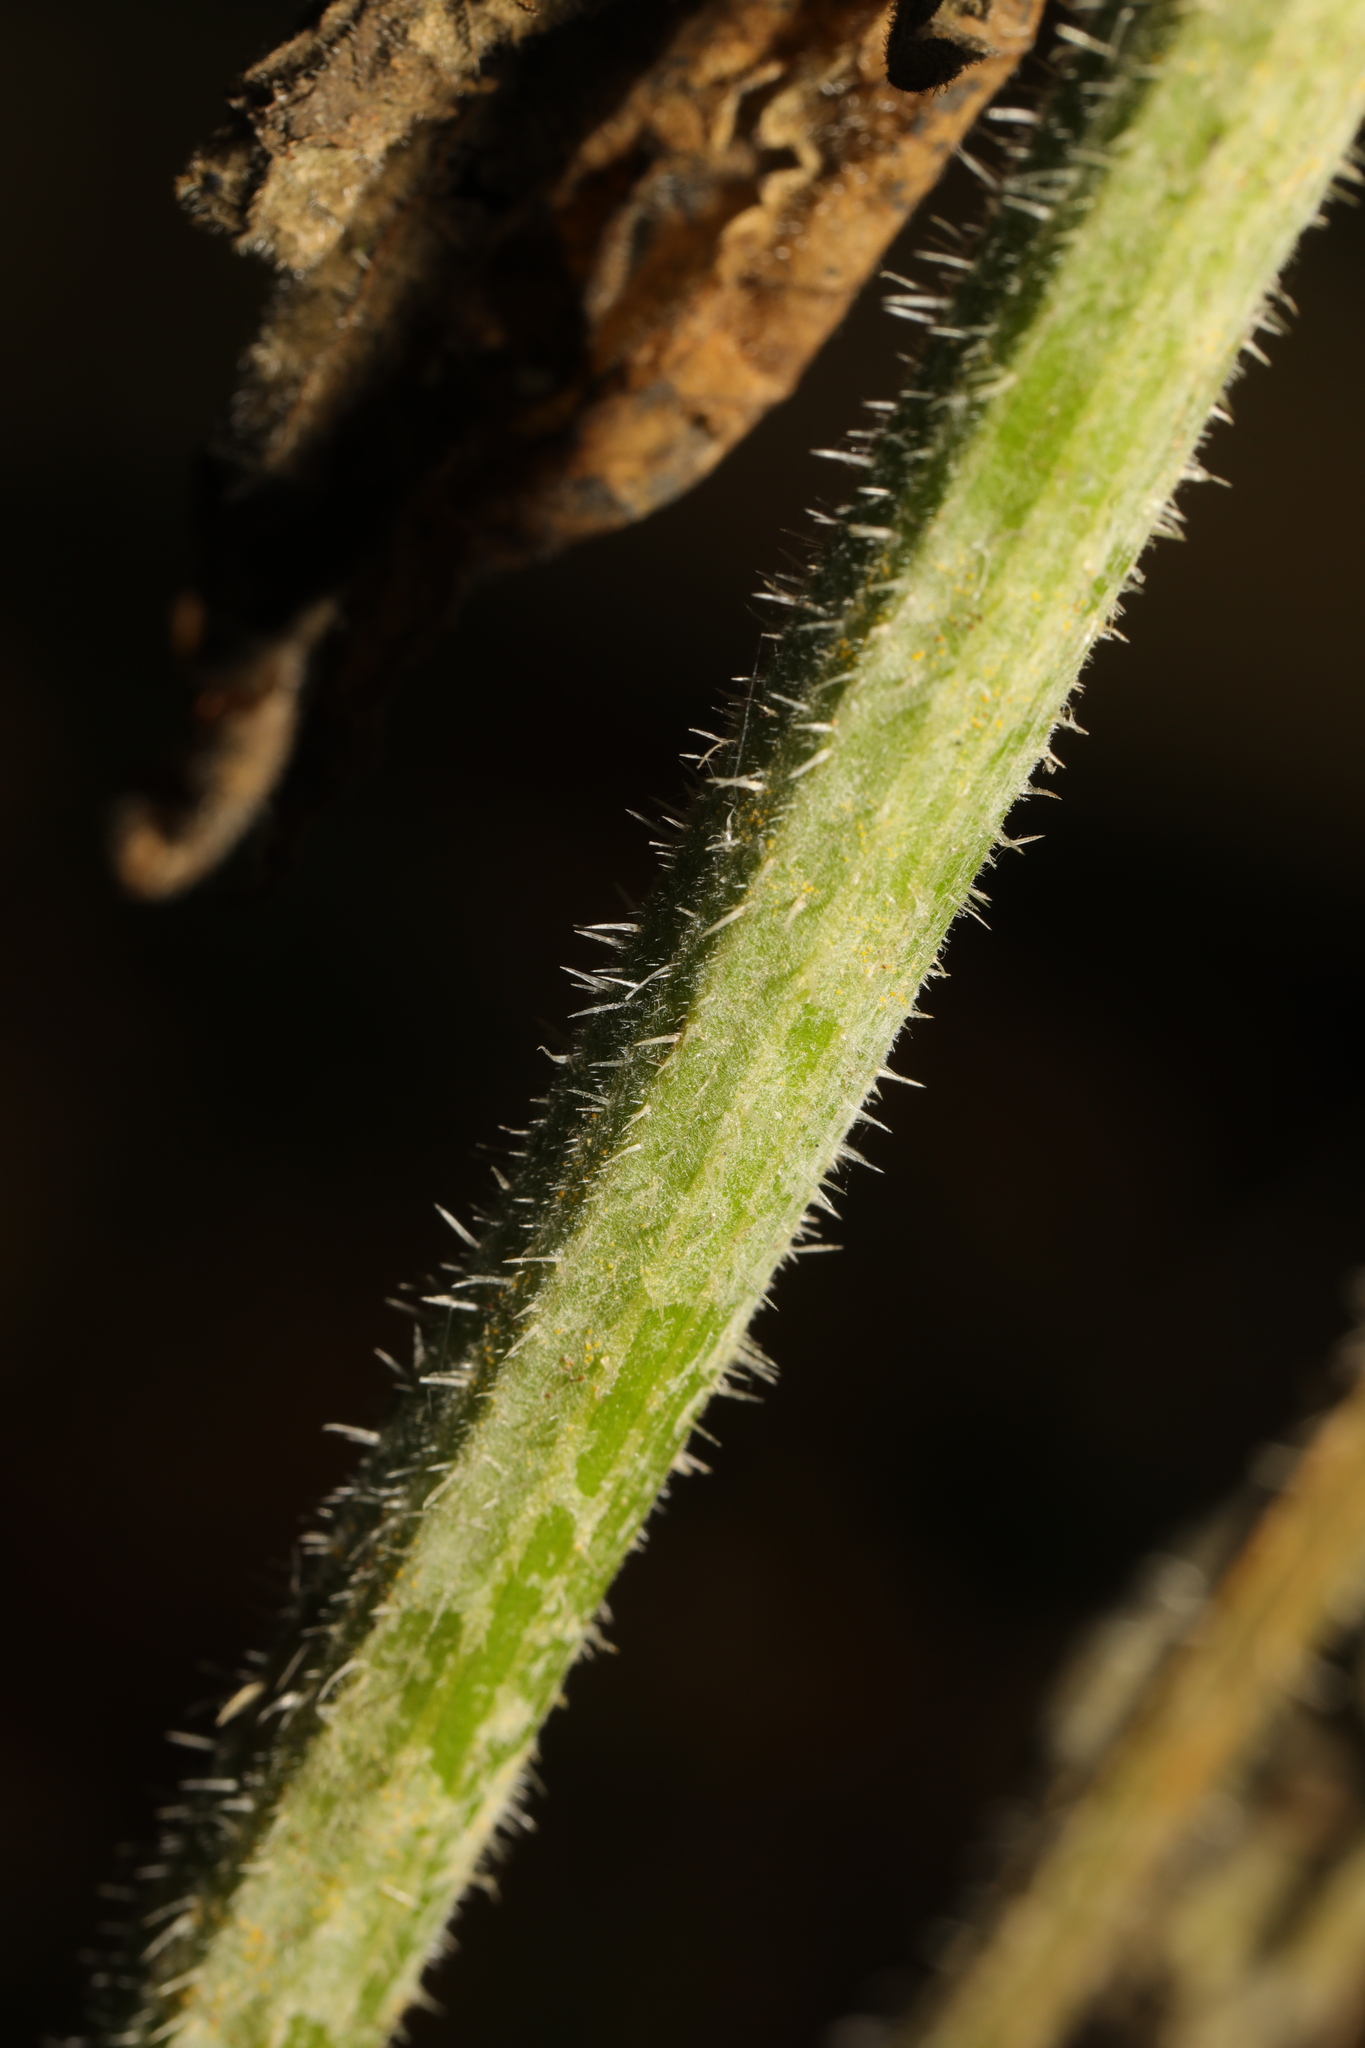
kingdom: Fungi
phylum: Ascomycota
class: Leotiomycetes
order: Helotiales
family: Erysiphaceae
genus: Erysiphe
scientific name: Erysiphe heraclei
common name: Umbellifer mildew
